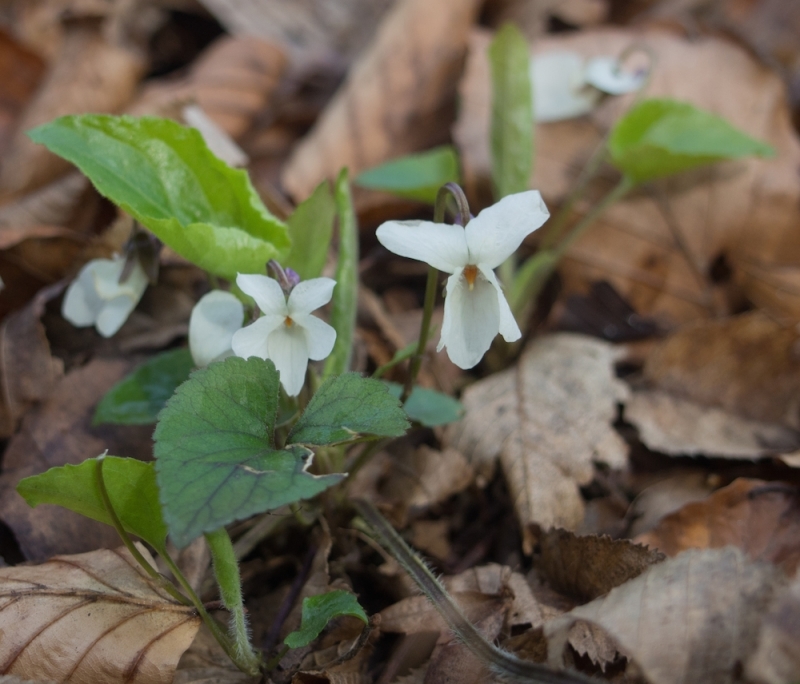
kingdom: Plantae
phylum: Tracheophyta
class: Magnoliopsida
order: Malpighiales
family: Violaceae
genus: Viola
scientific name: Viola alba
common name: White violet
